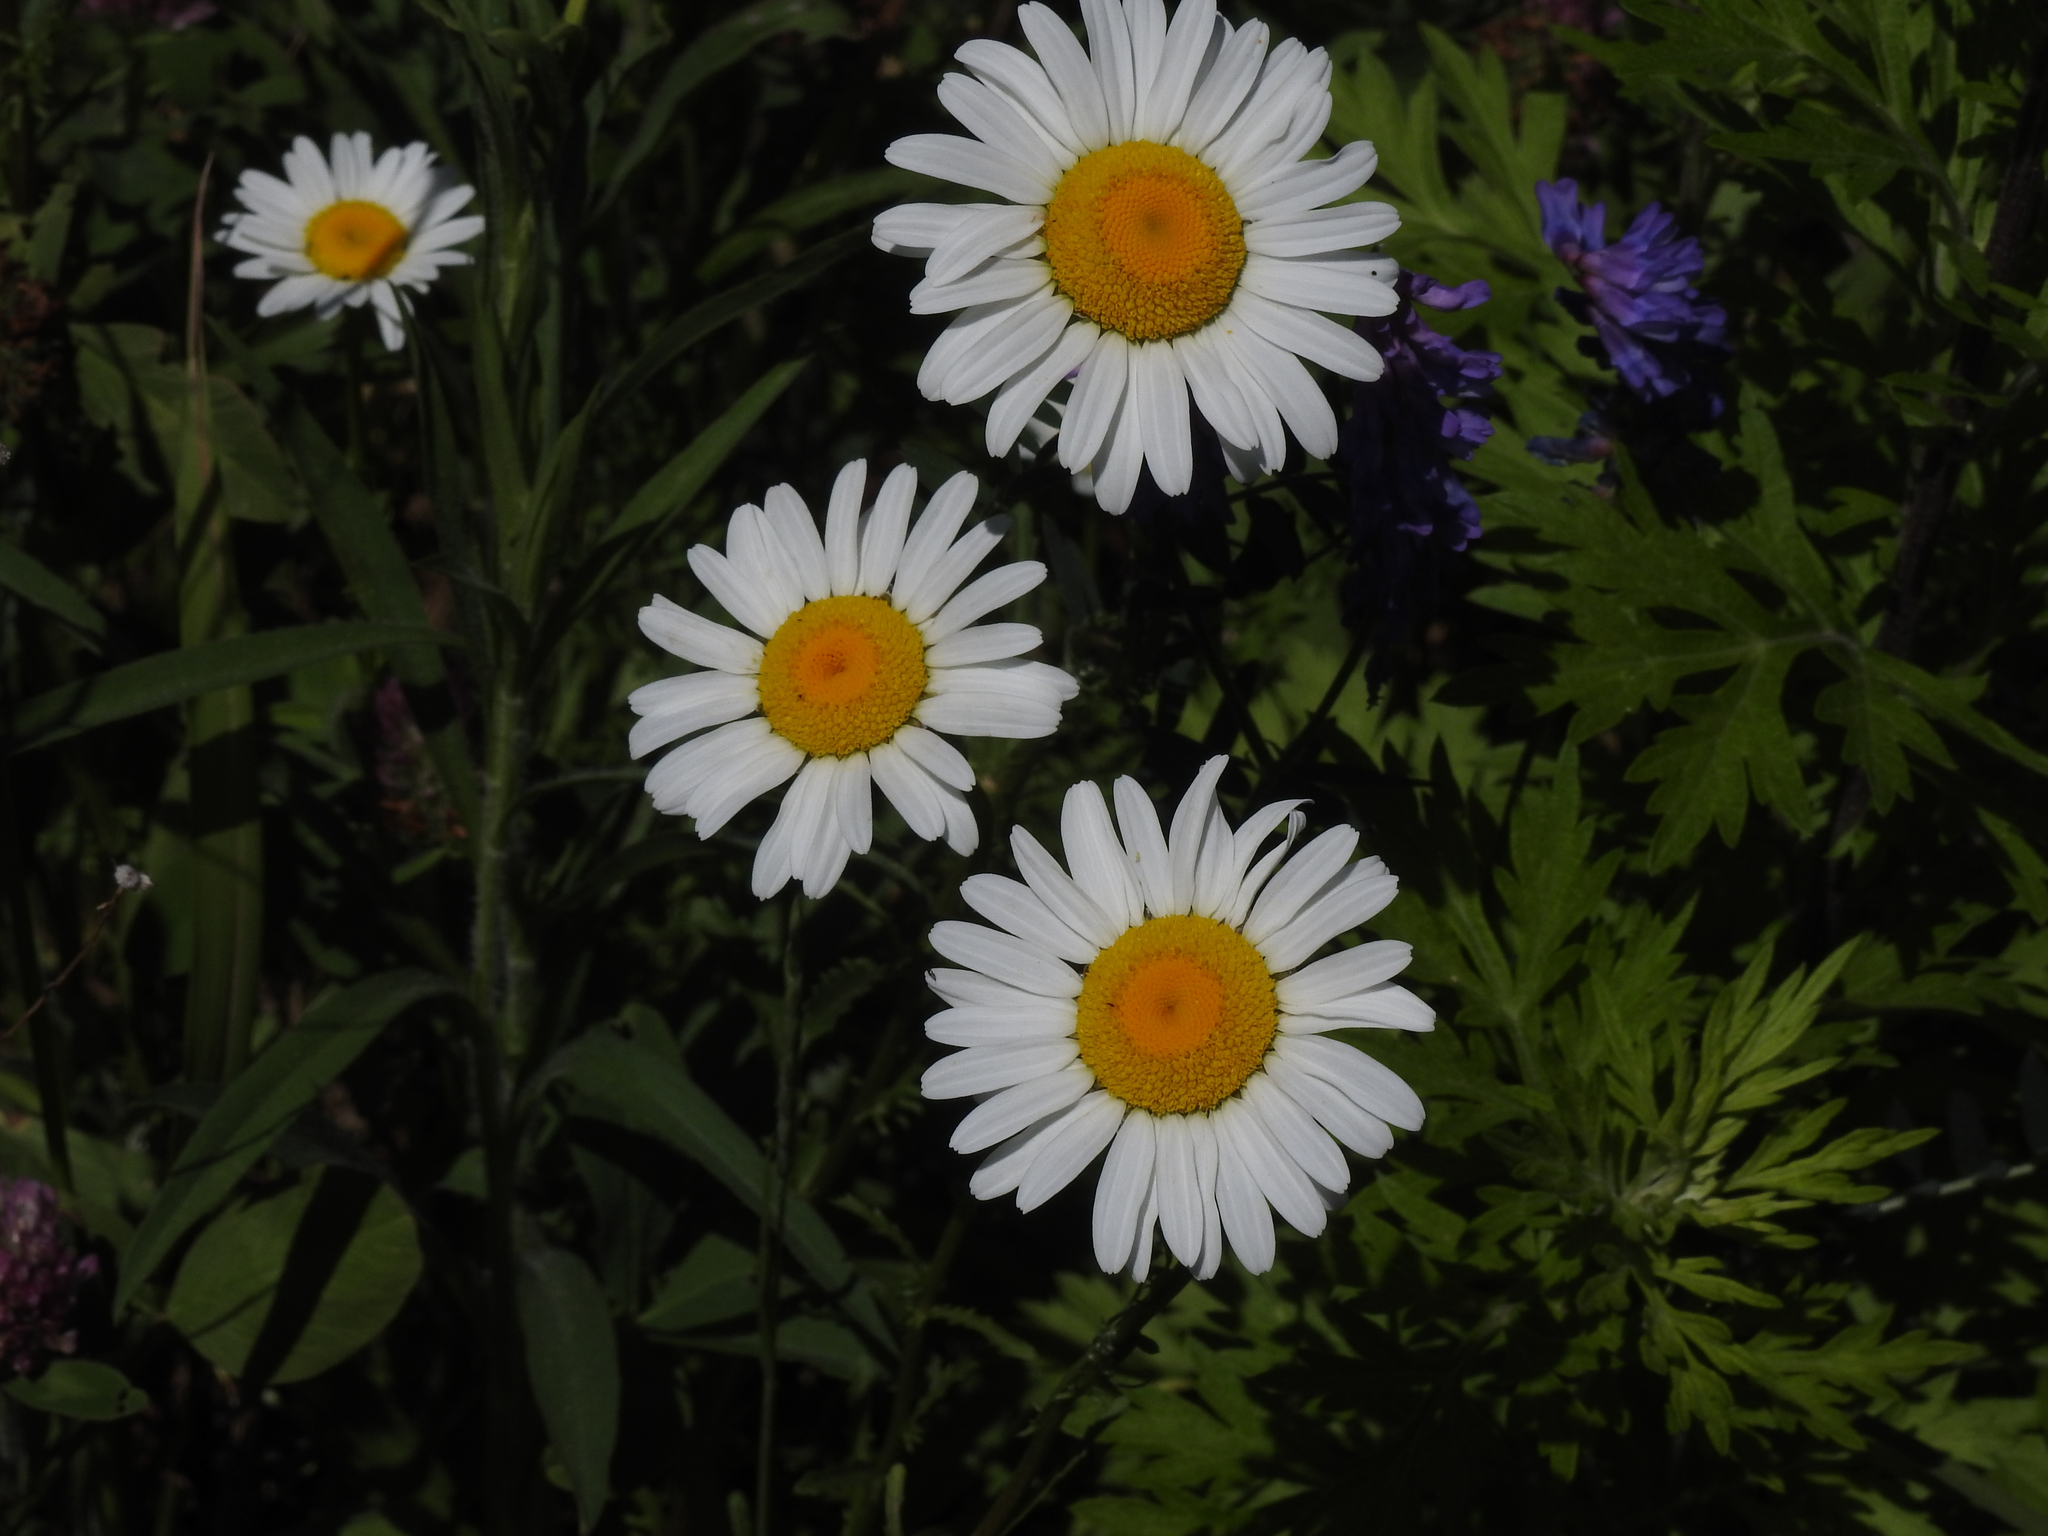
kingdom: Plantae
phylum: Tracheophyta
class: Magnoliopsida
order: Asterales
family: Asteraceae
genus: Leucanthemum
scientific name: Leucanthemum vulgare
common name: Oxeye daisy
